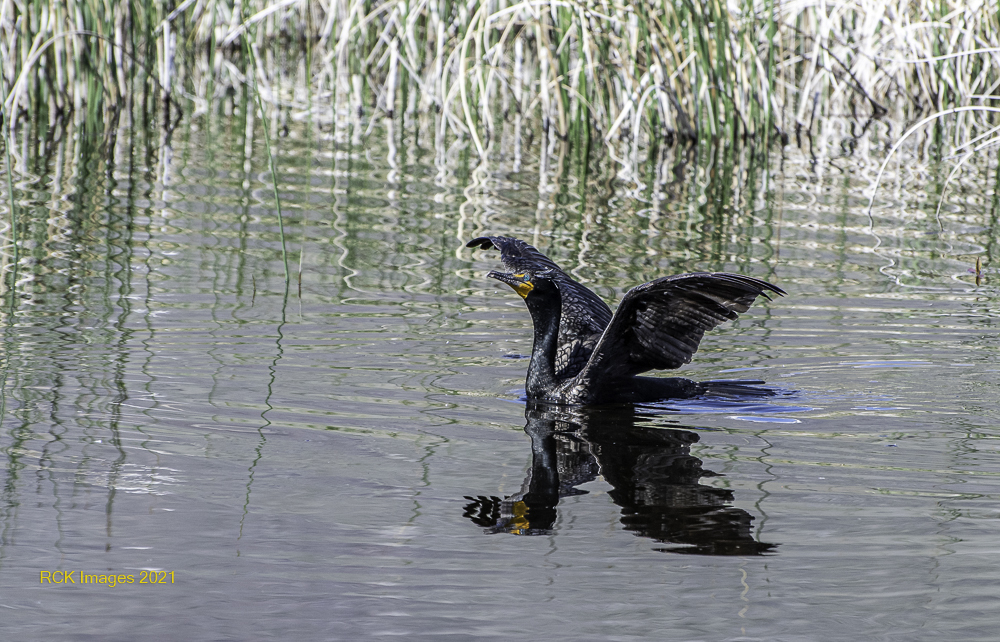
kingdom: Animalia
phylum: Chordata
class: Aves
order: Suliformes
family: Phalacrocoracidae
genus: Phalacrocorax
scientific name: Phalacrocorax auritus
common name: Double-crested cormorant
